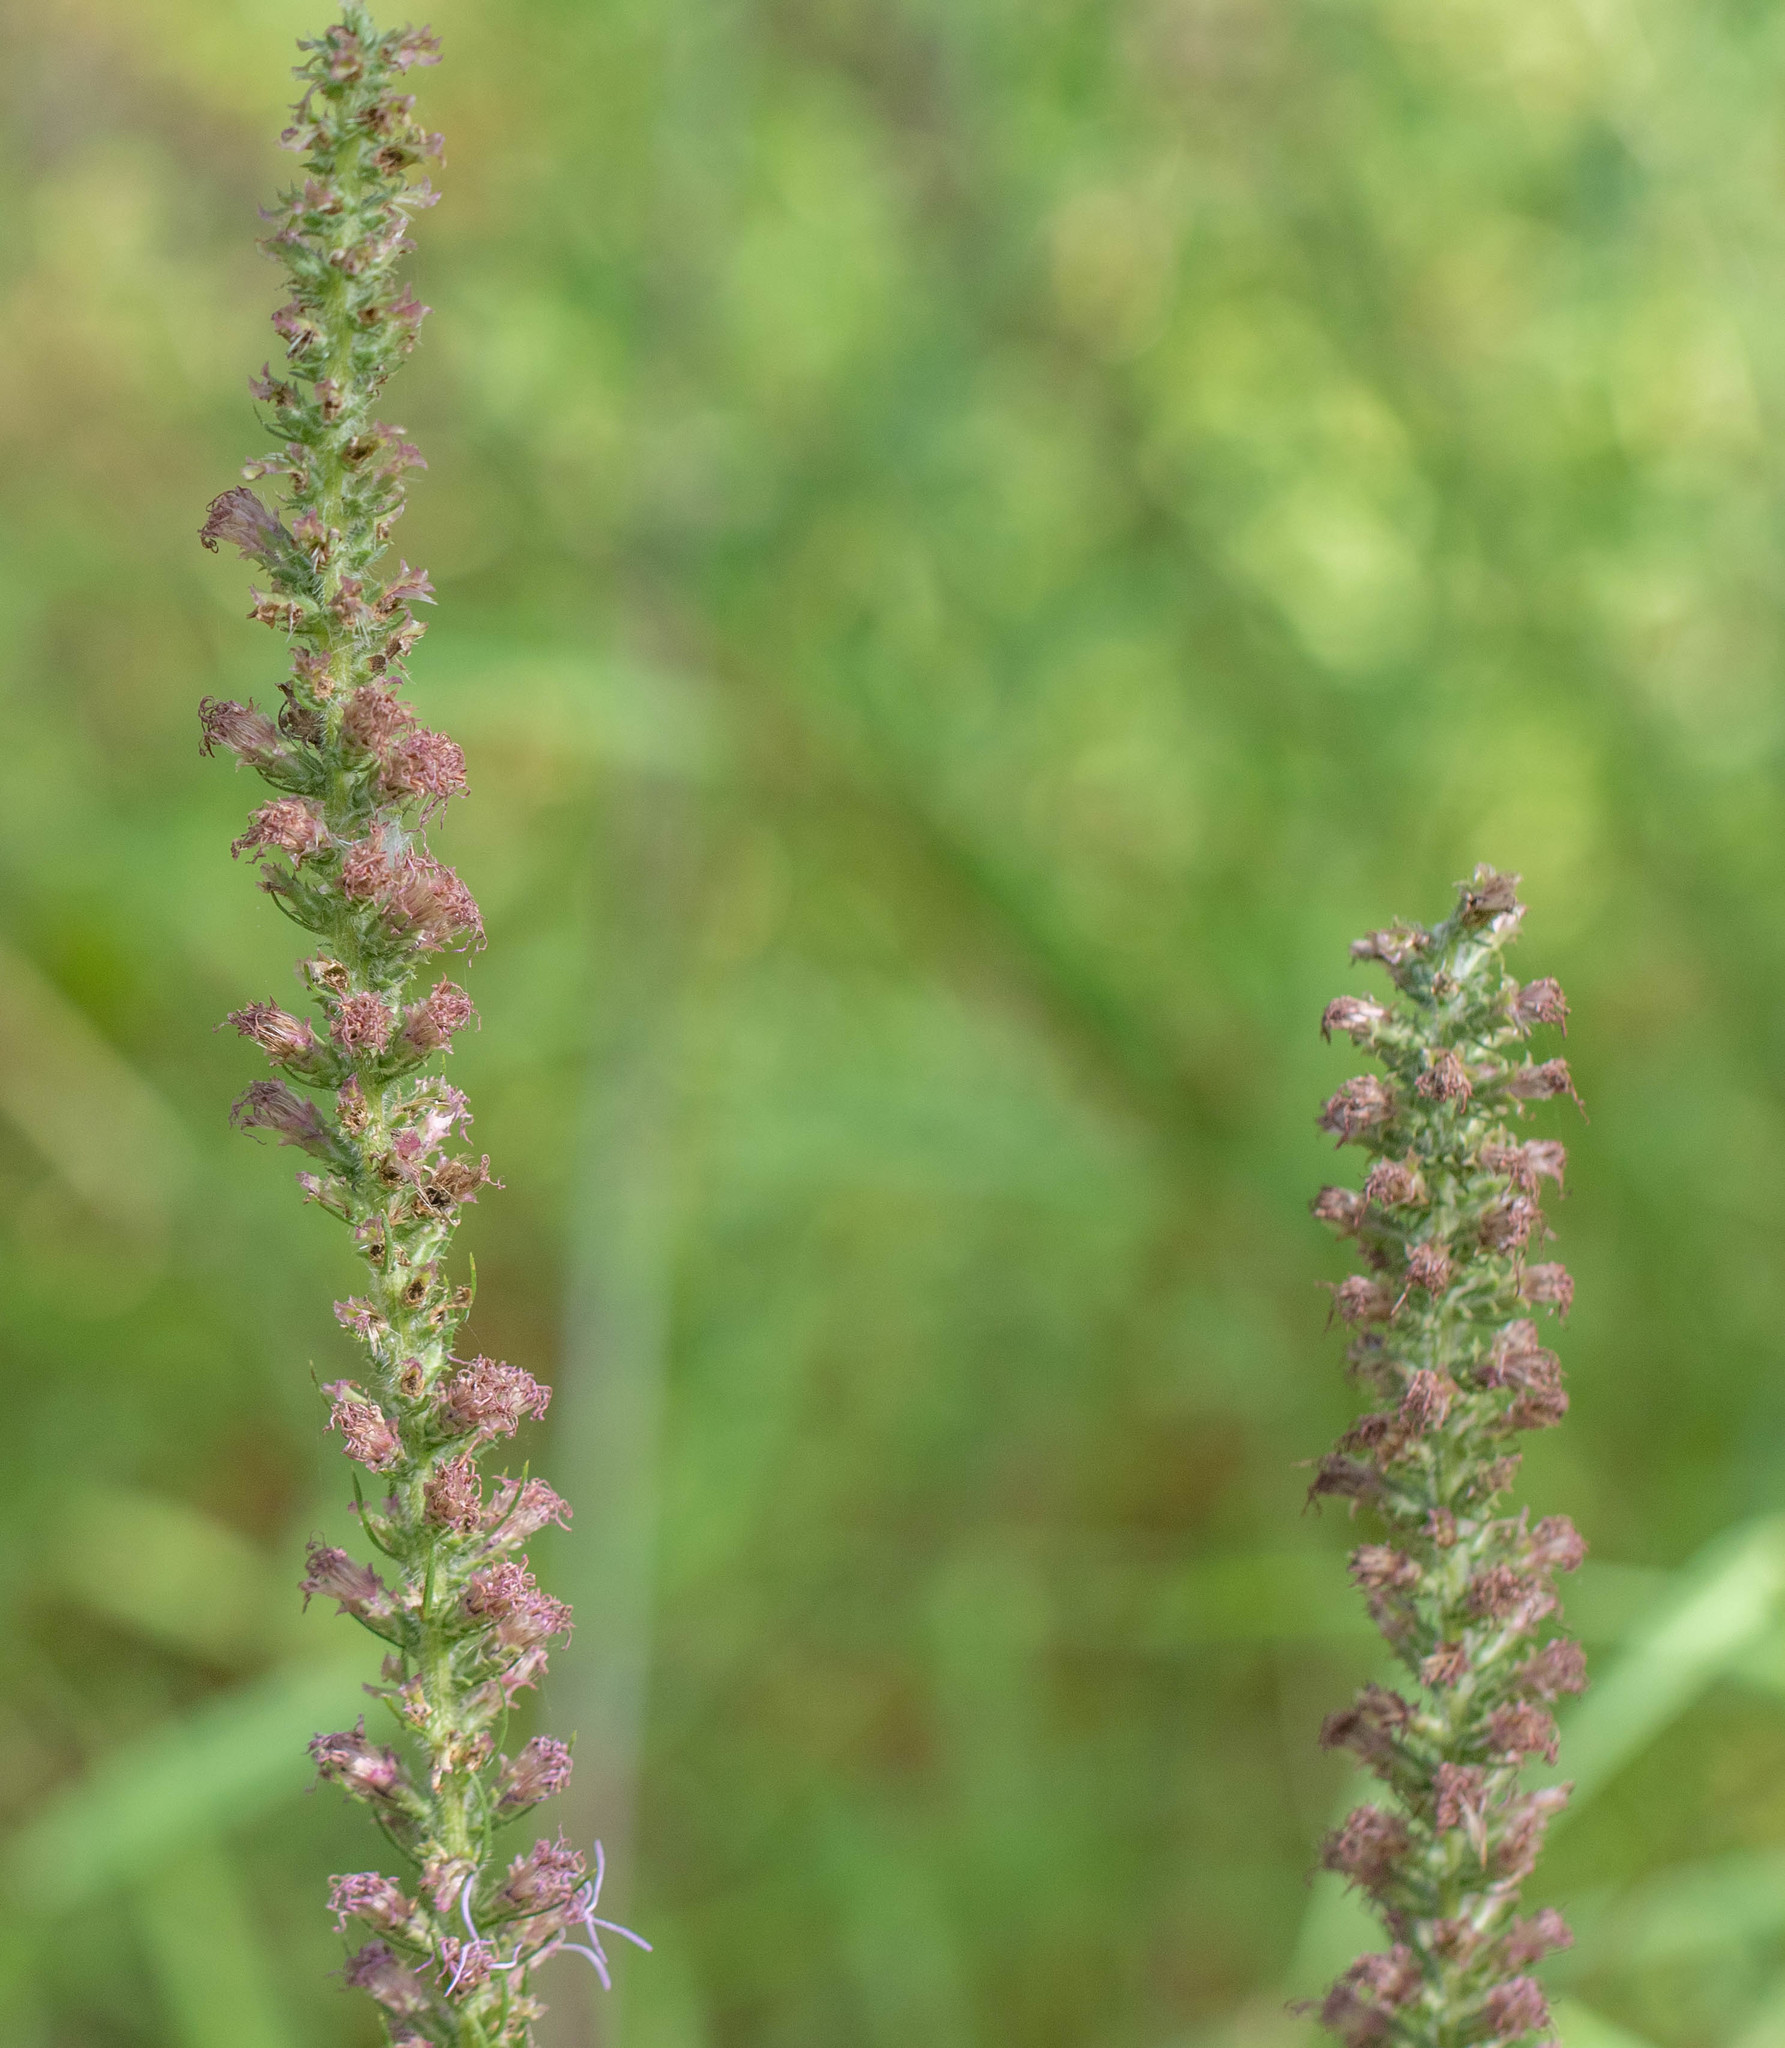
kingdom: Plantae
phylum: Tracheophyta
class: Magnoliopsida
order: Asterales
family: Asteraceae
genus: Liatris
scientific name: Liatris pycnostachya
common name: Cattail gayfeather
